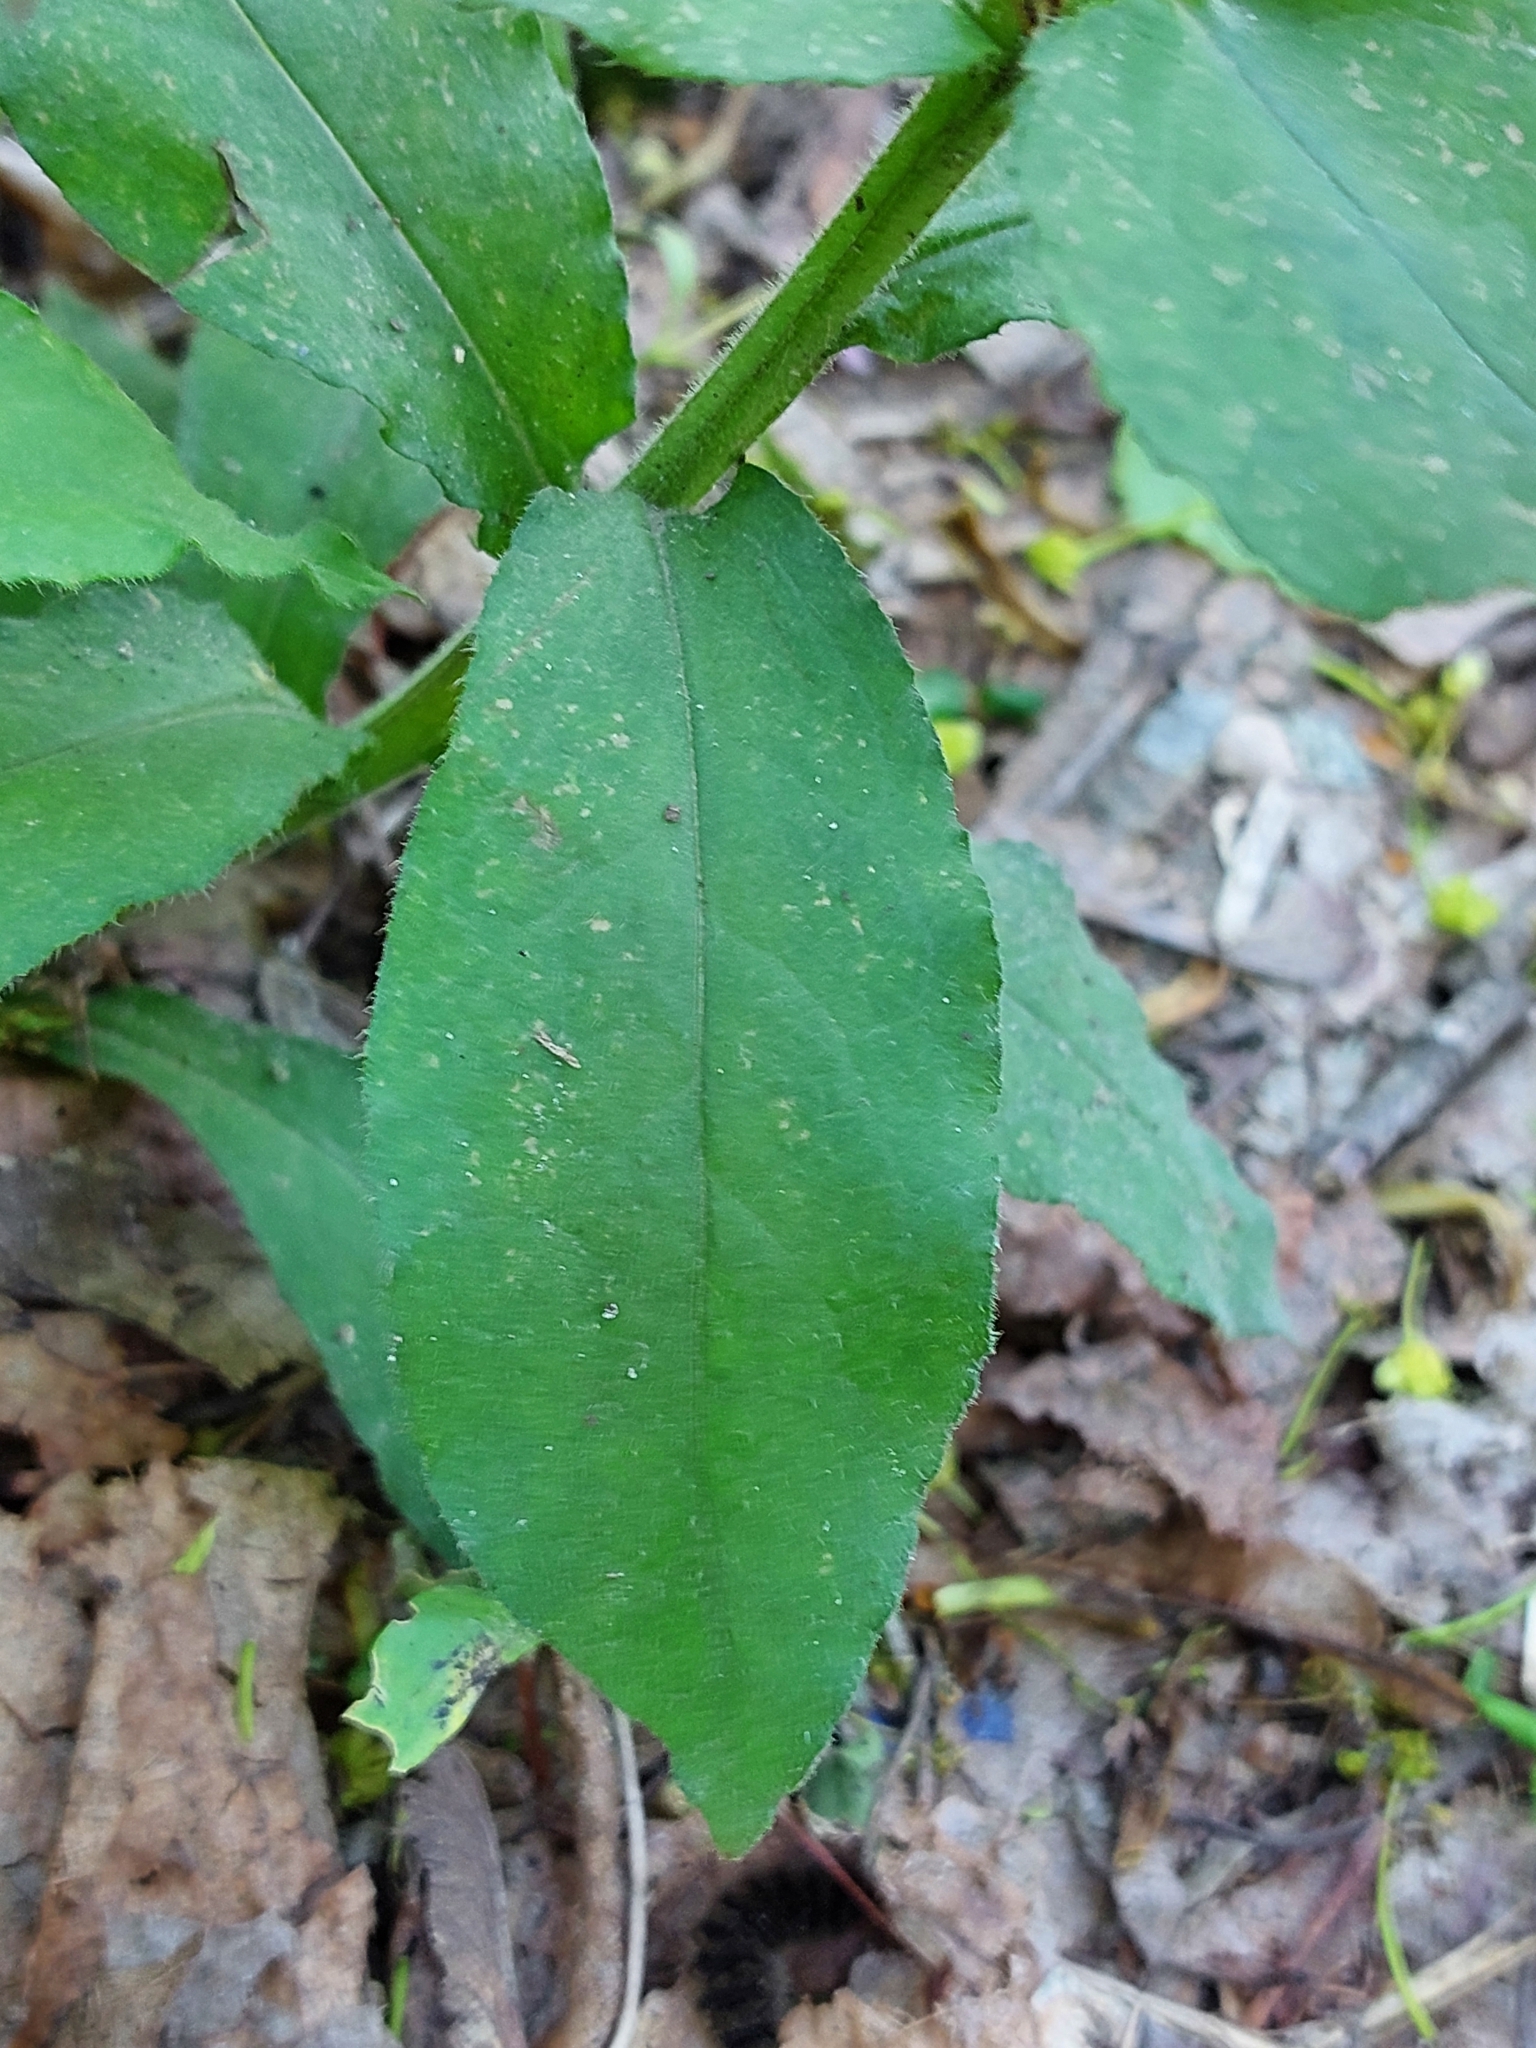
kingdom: Plantae
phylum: Tracheophyta
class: Magnoliopsida
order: Boraginales
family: Boraginaceae
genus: Pulmonaria
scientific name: Pulmonaria obscura
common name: Suffolk lungwort
